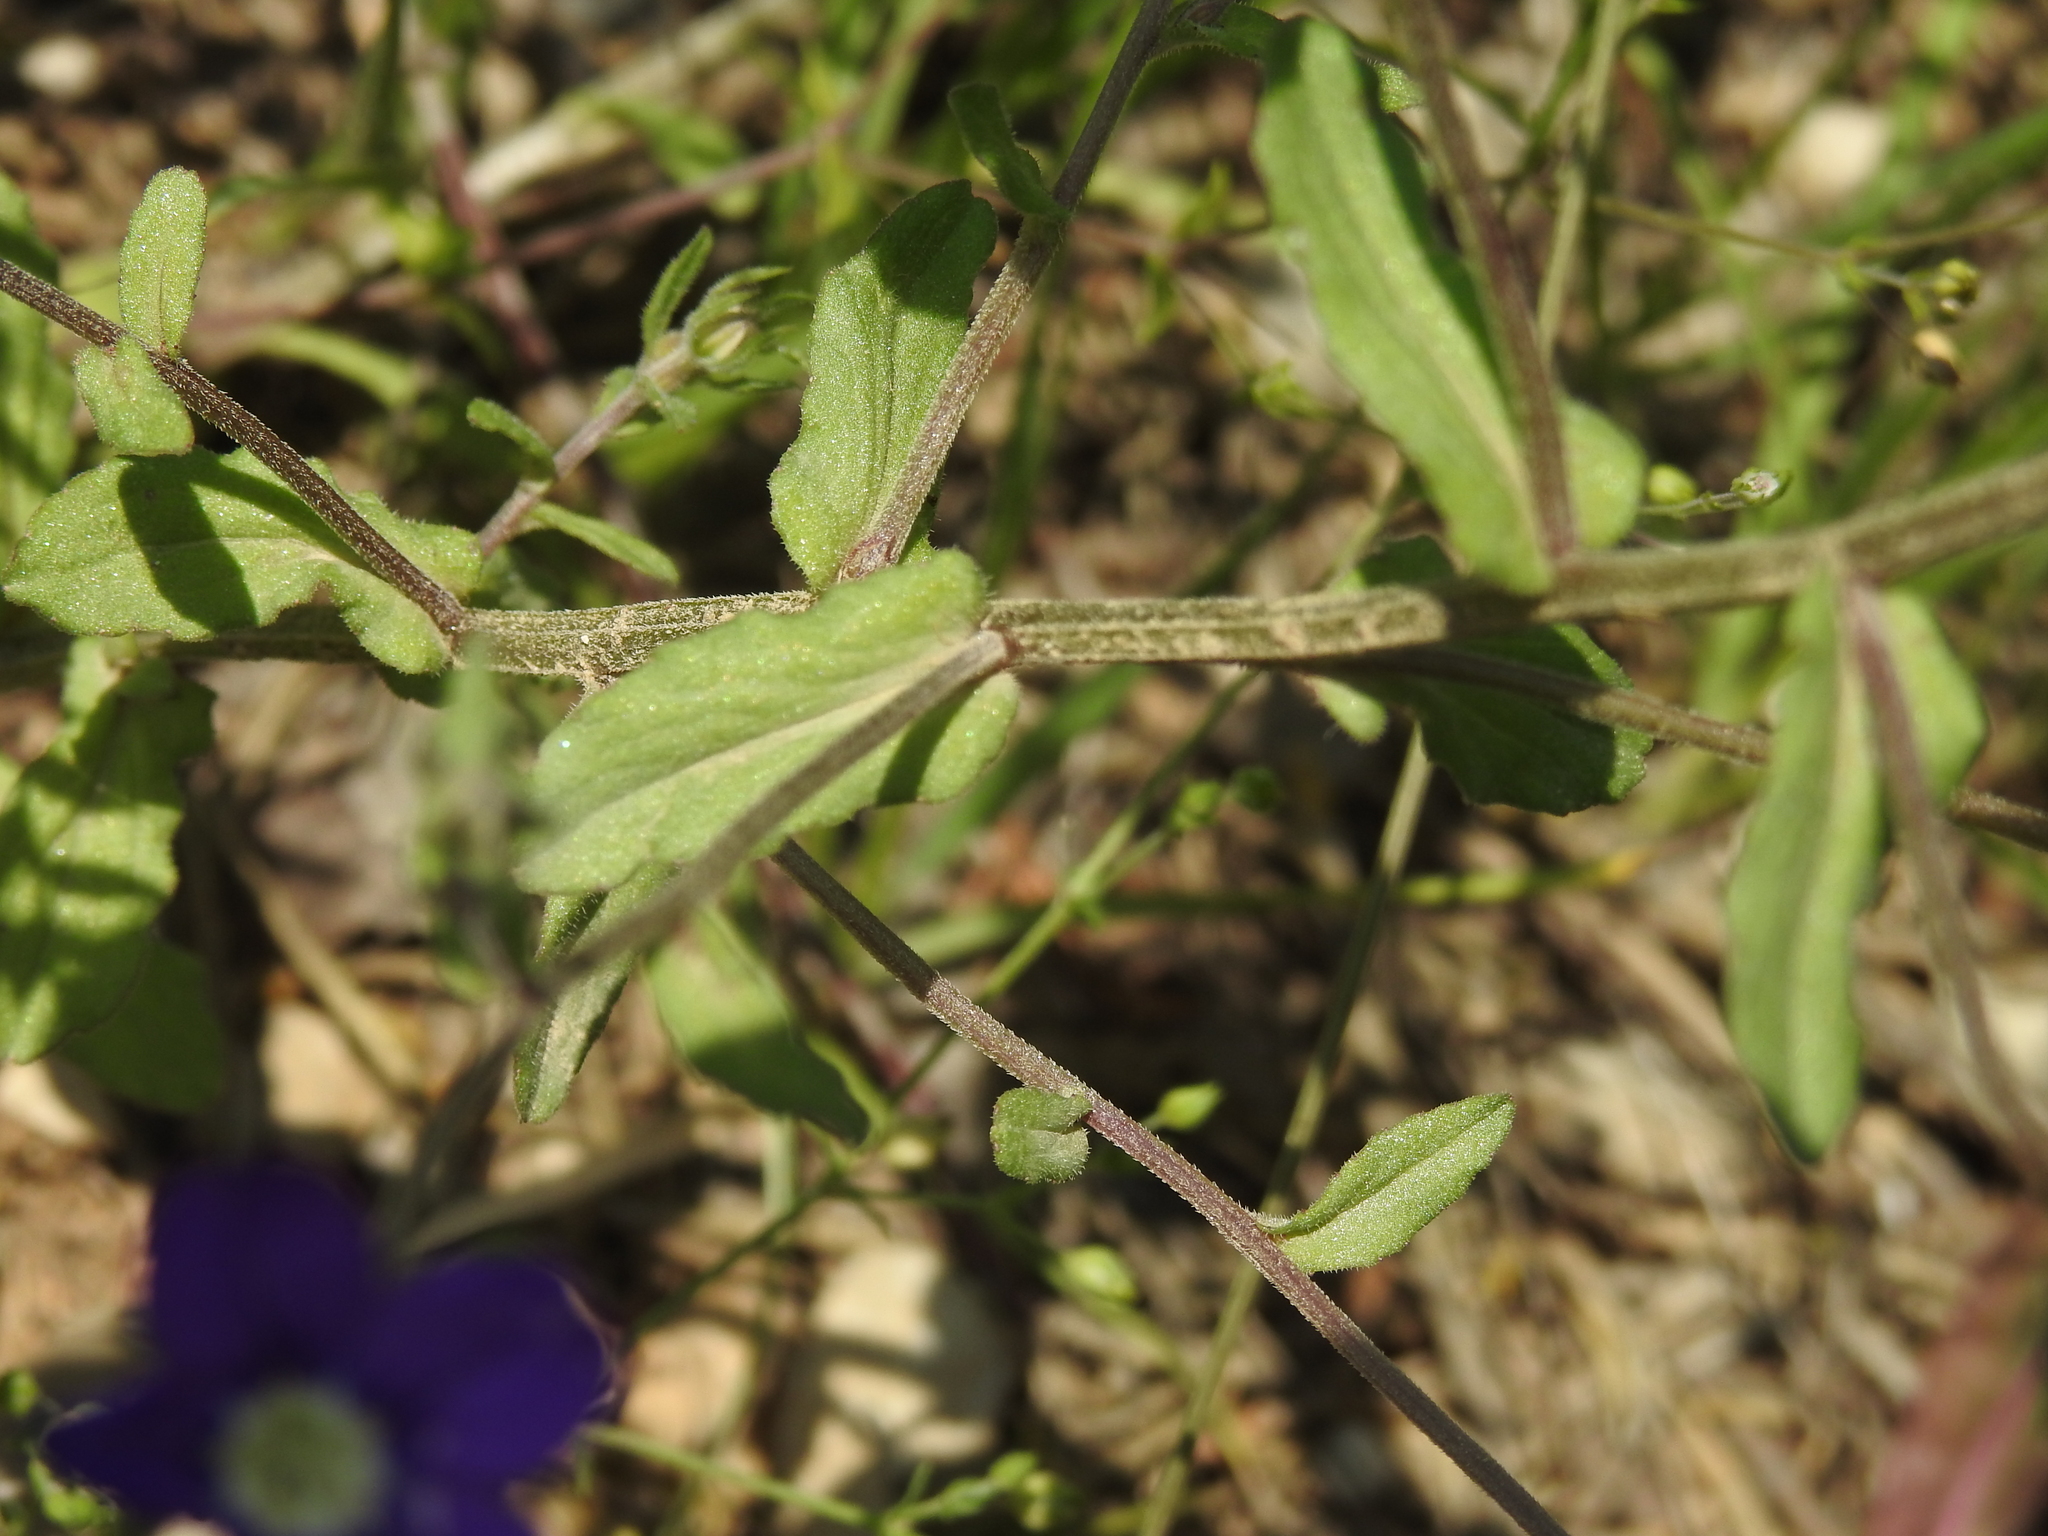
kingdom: Plantae
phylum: Tracheophyta
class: Magnoliopsida
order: Asterales
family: Campanulaceae
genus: Legousia
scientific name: Legousia speculum-veneris
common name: Large venus's-looking-glass
